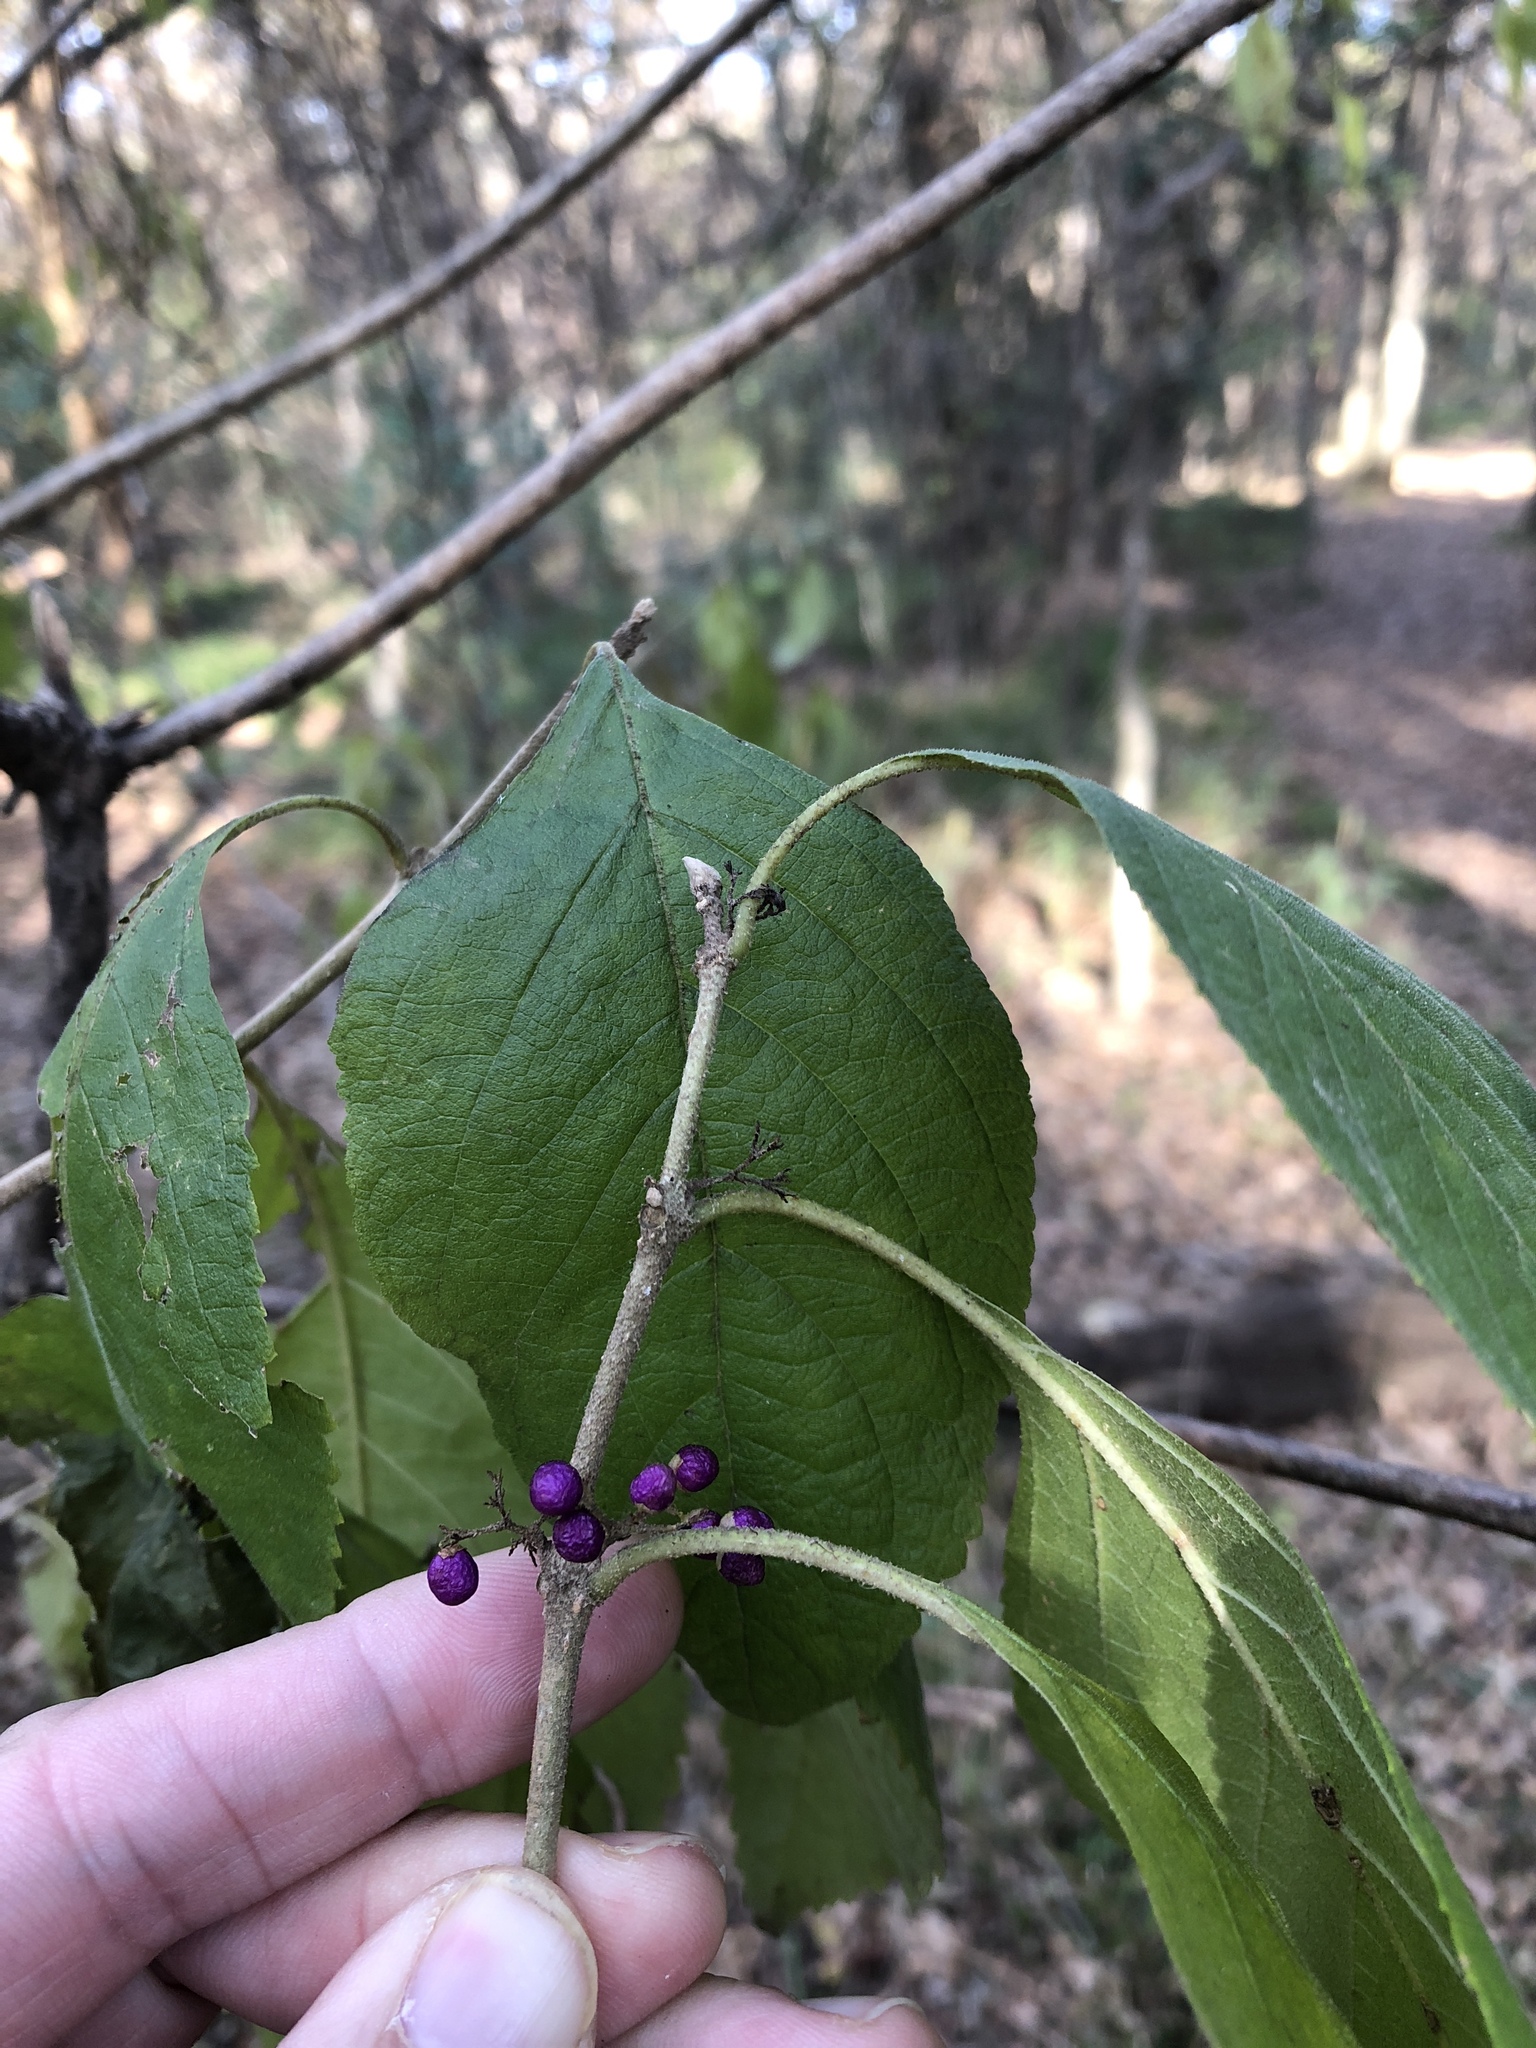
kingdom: Plantae
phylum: Tracheophyta
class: Magnoliopsida
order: Lamiales
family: Lamiaceae
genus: Callicarpa
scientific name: Callicarpa americana
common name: American beautyberry
